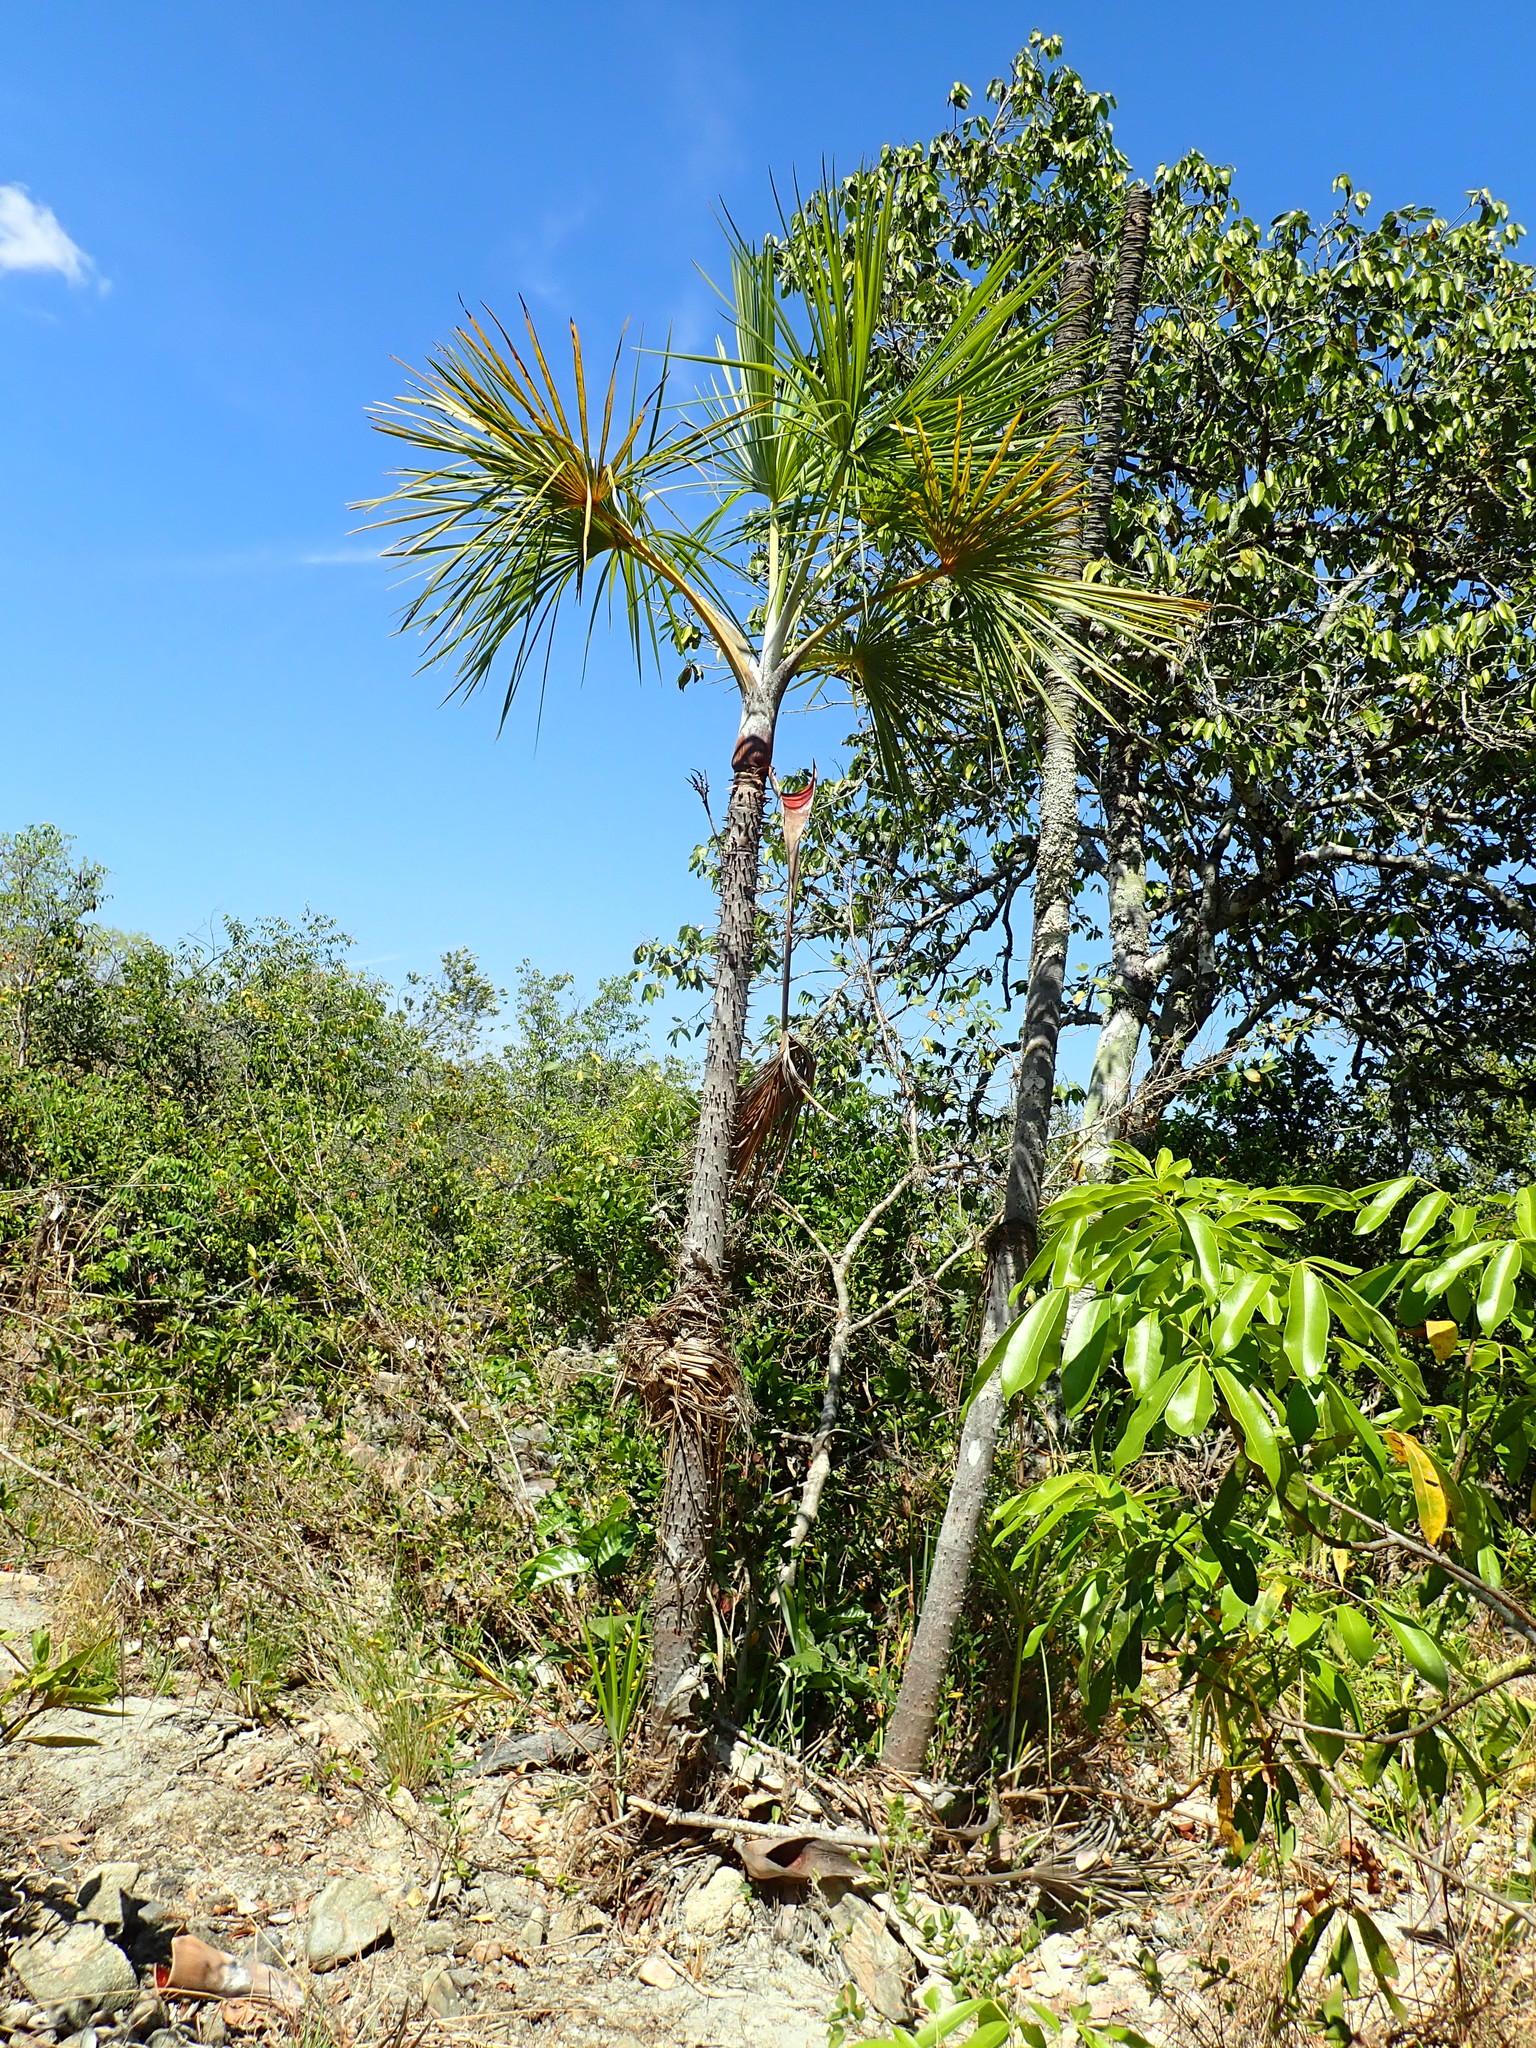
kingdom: Plantae
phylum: Tracheophyta
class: Liliopsida
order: Arecales
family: Arecaceae
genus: Mauritiella
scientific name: Mauritiella armata
